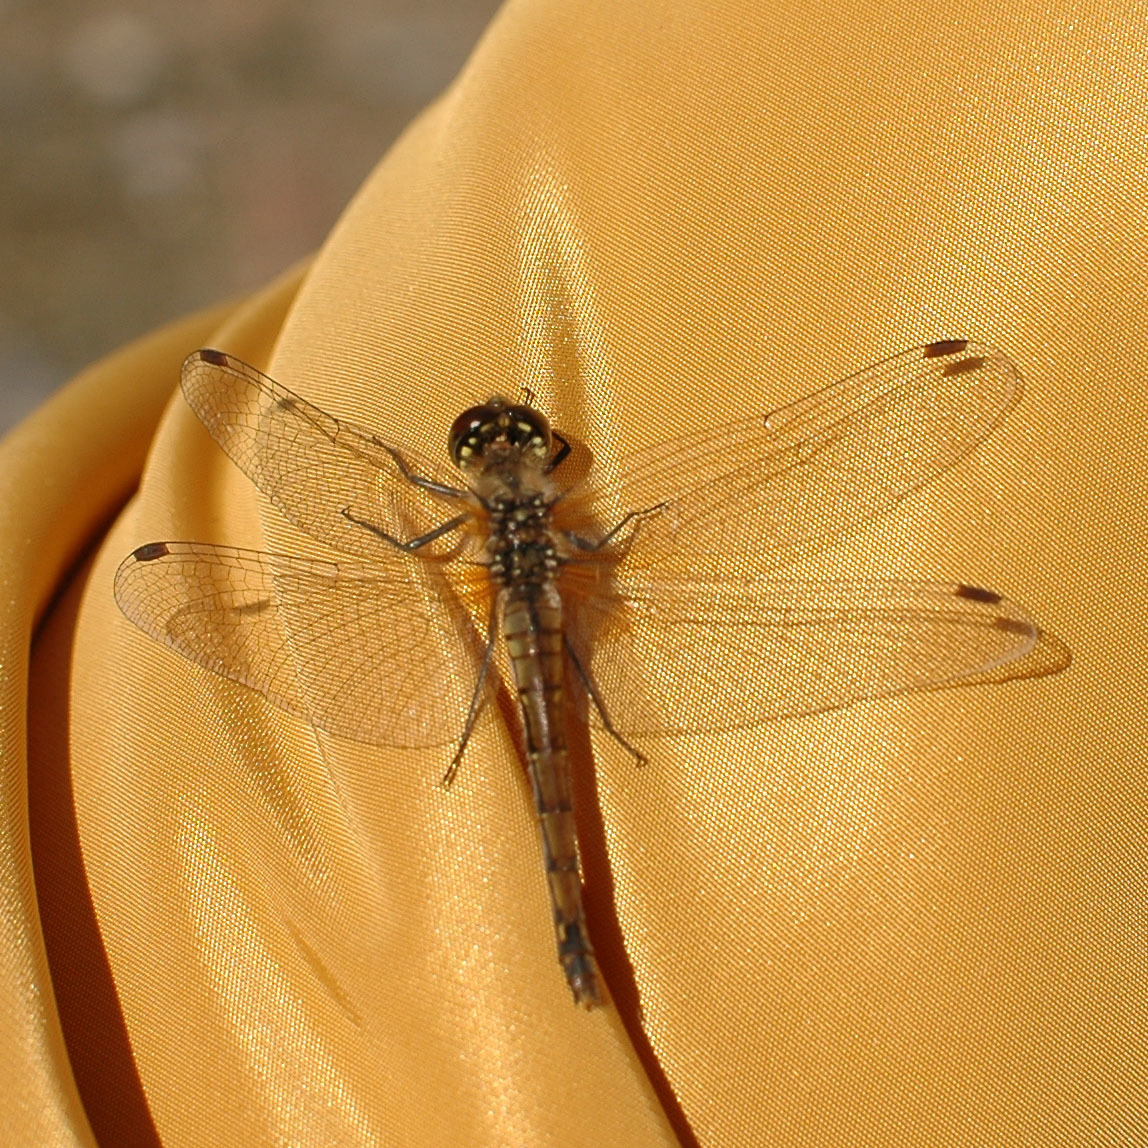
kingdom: Animalia
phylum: Arthropoda
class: Insecta
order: Odonata
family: Libellulidae
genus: Sympetrum
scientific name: Sympetrum danae
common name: Black darter
